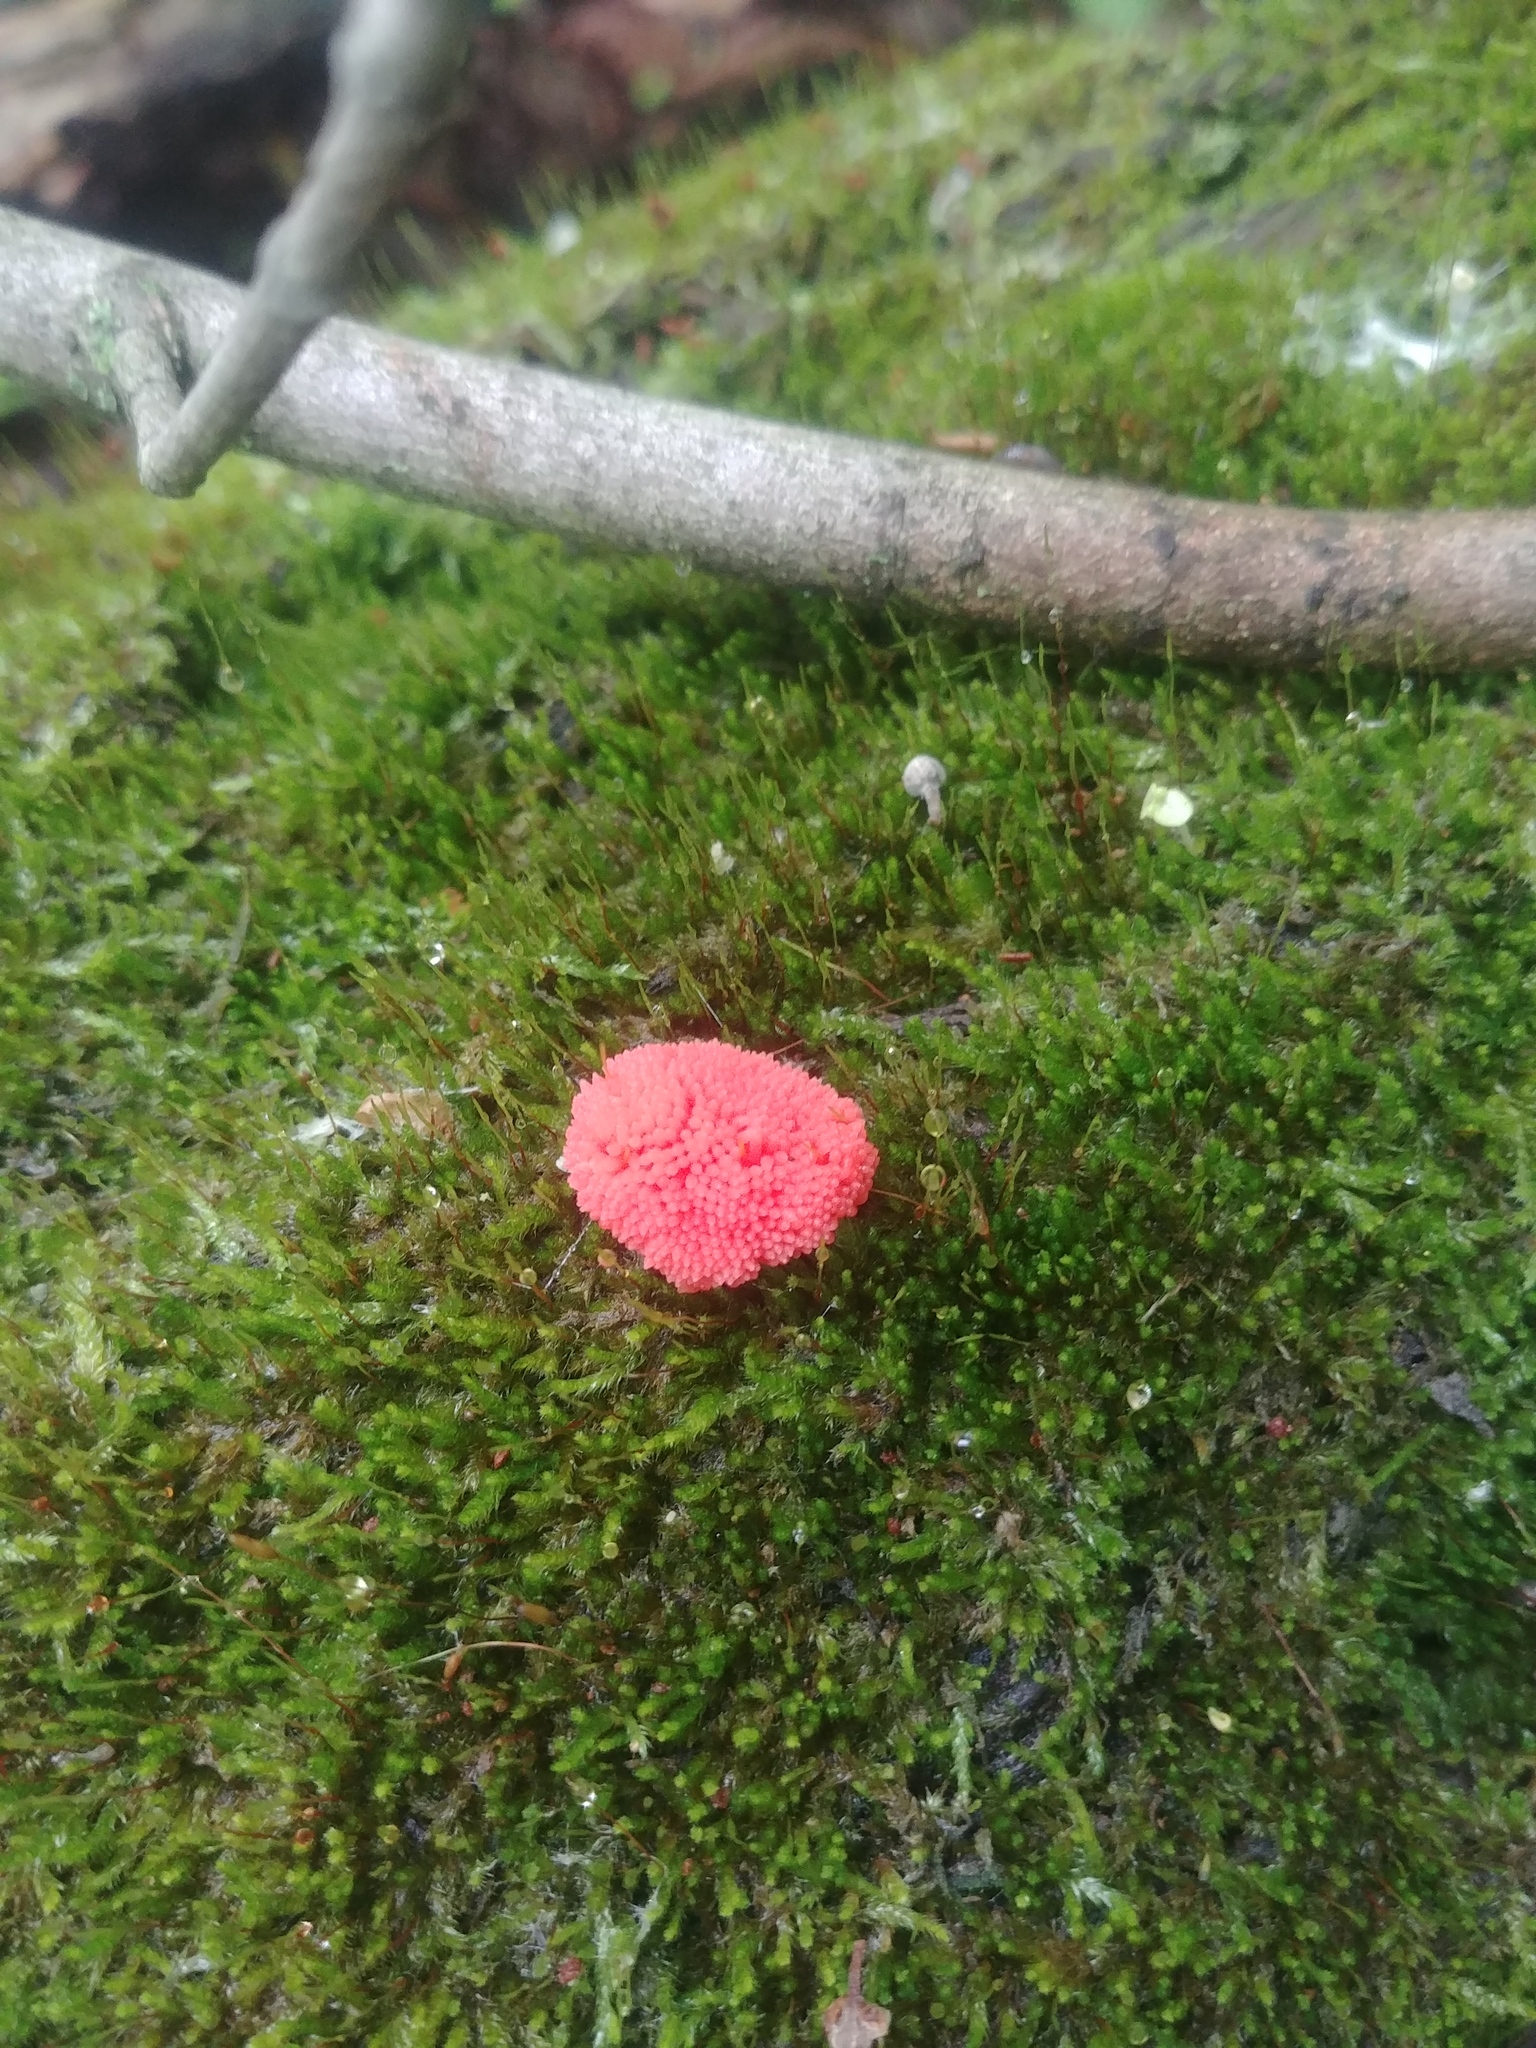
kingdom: Protozoa
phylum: Mycetozoa
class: Myxomycetes
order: Cribrariales
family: Tubiferaceae
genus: Tubifera
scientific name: Tubifera ferruginosa
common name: Red raspberry slime mold
